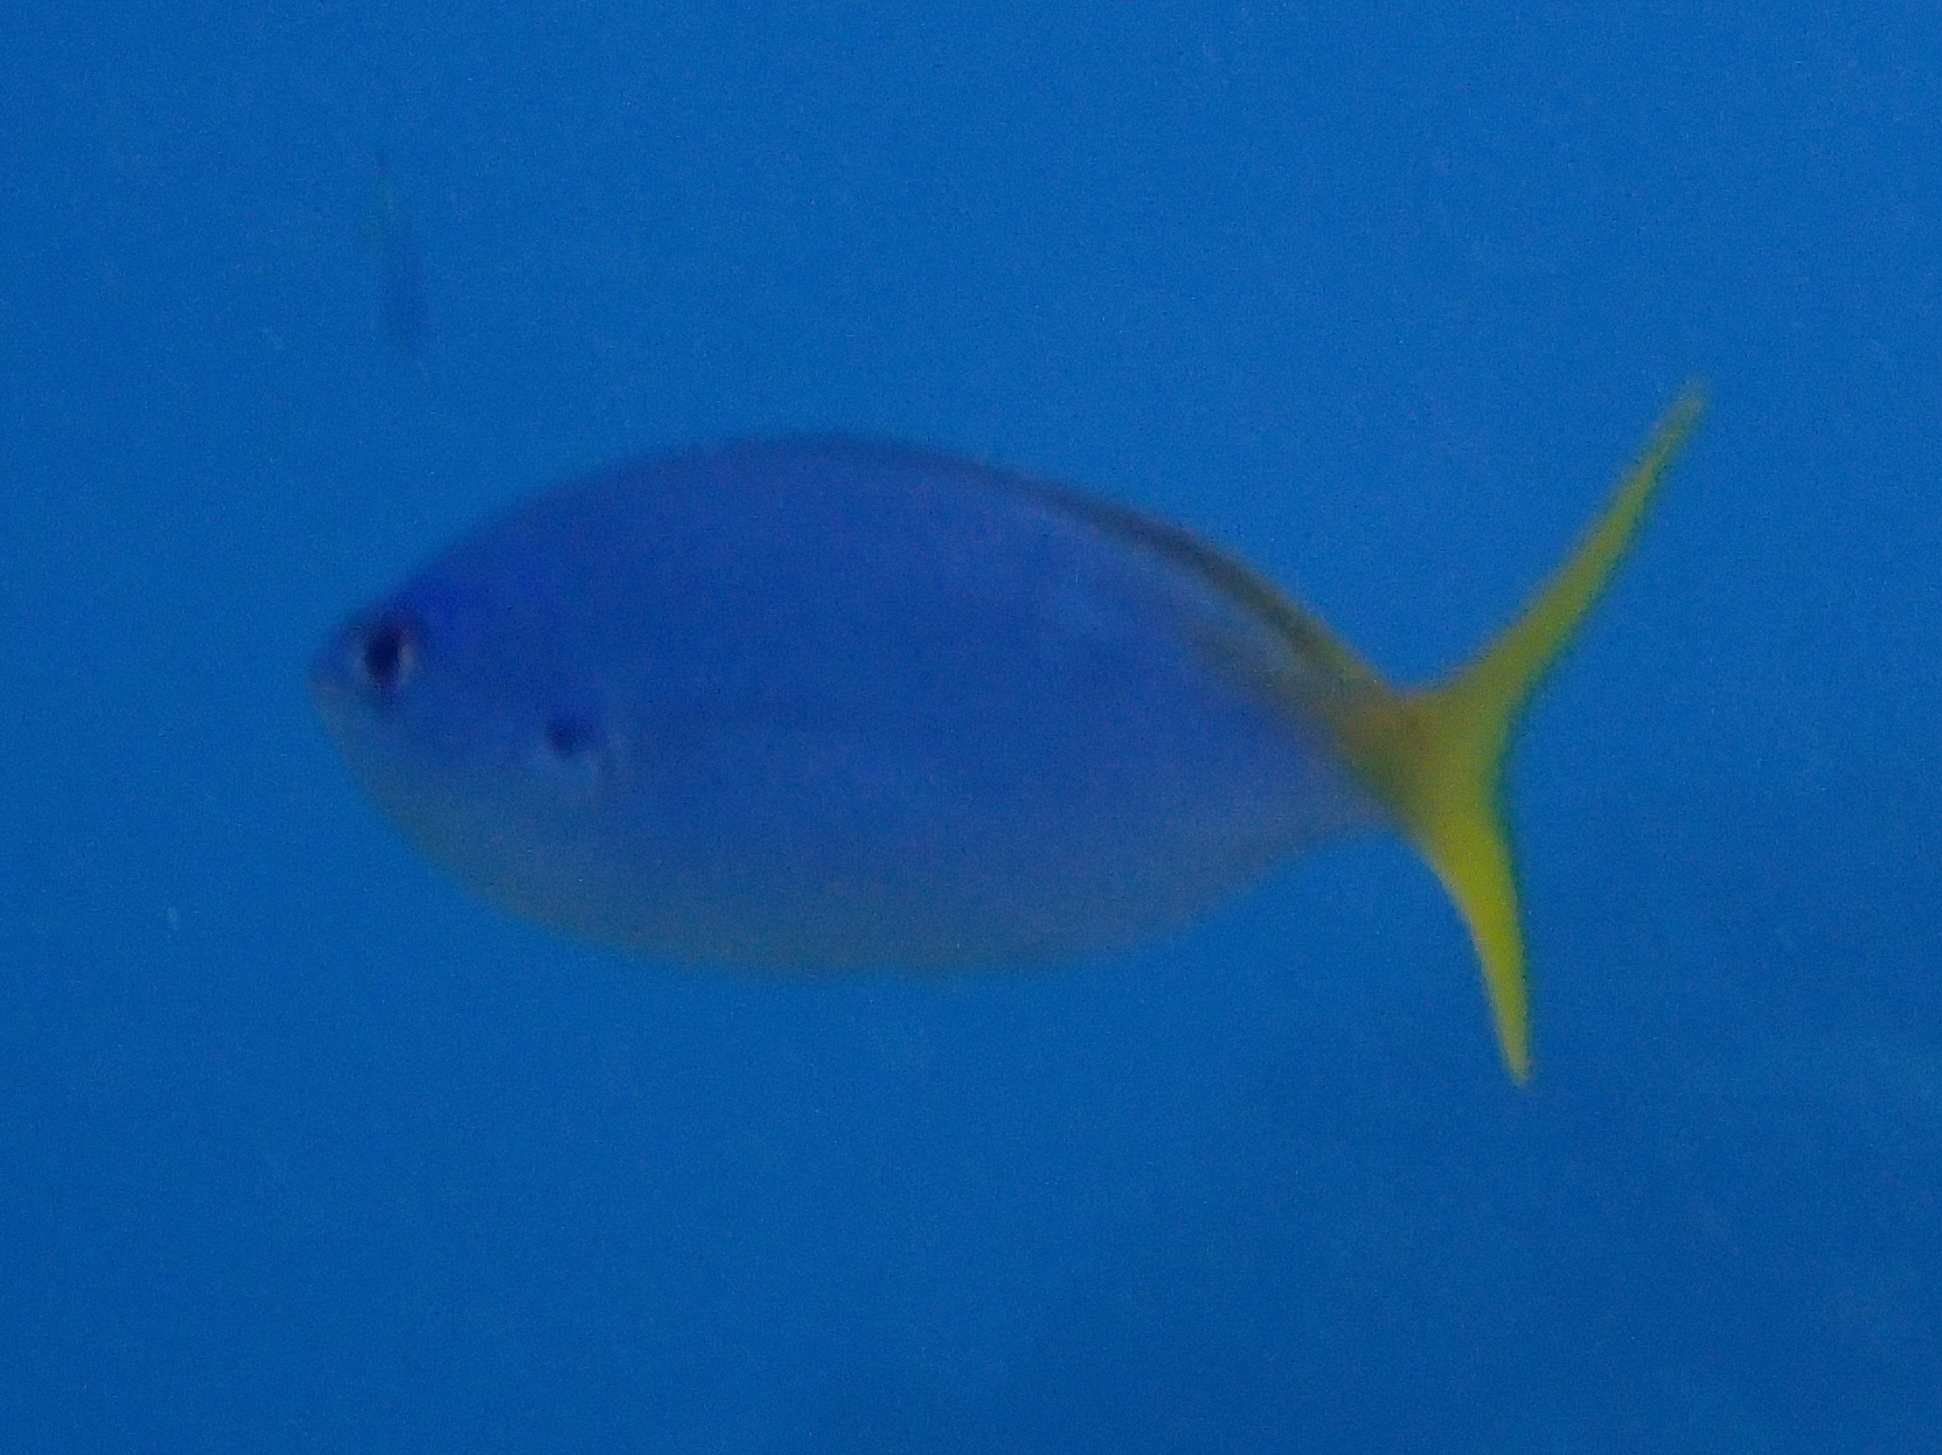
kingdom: Animalia
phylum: Chordata
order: Perciformes
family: Caesionidae
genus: Caesio
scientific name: Caesio cuning
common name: Red-bellied fusilier
